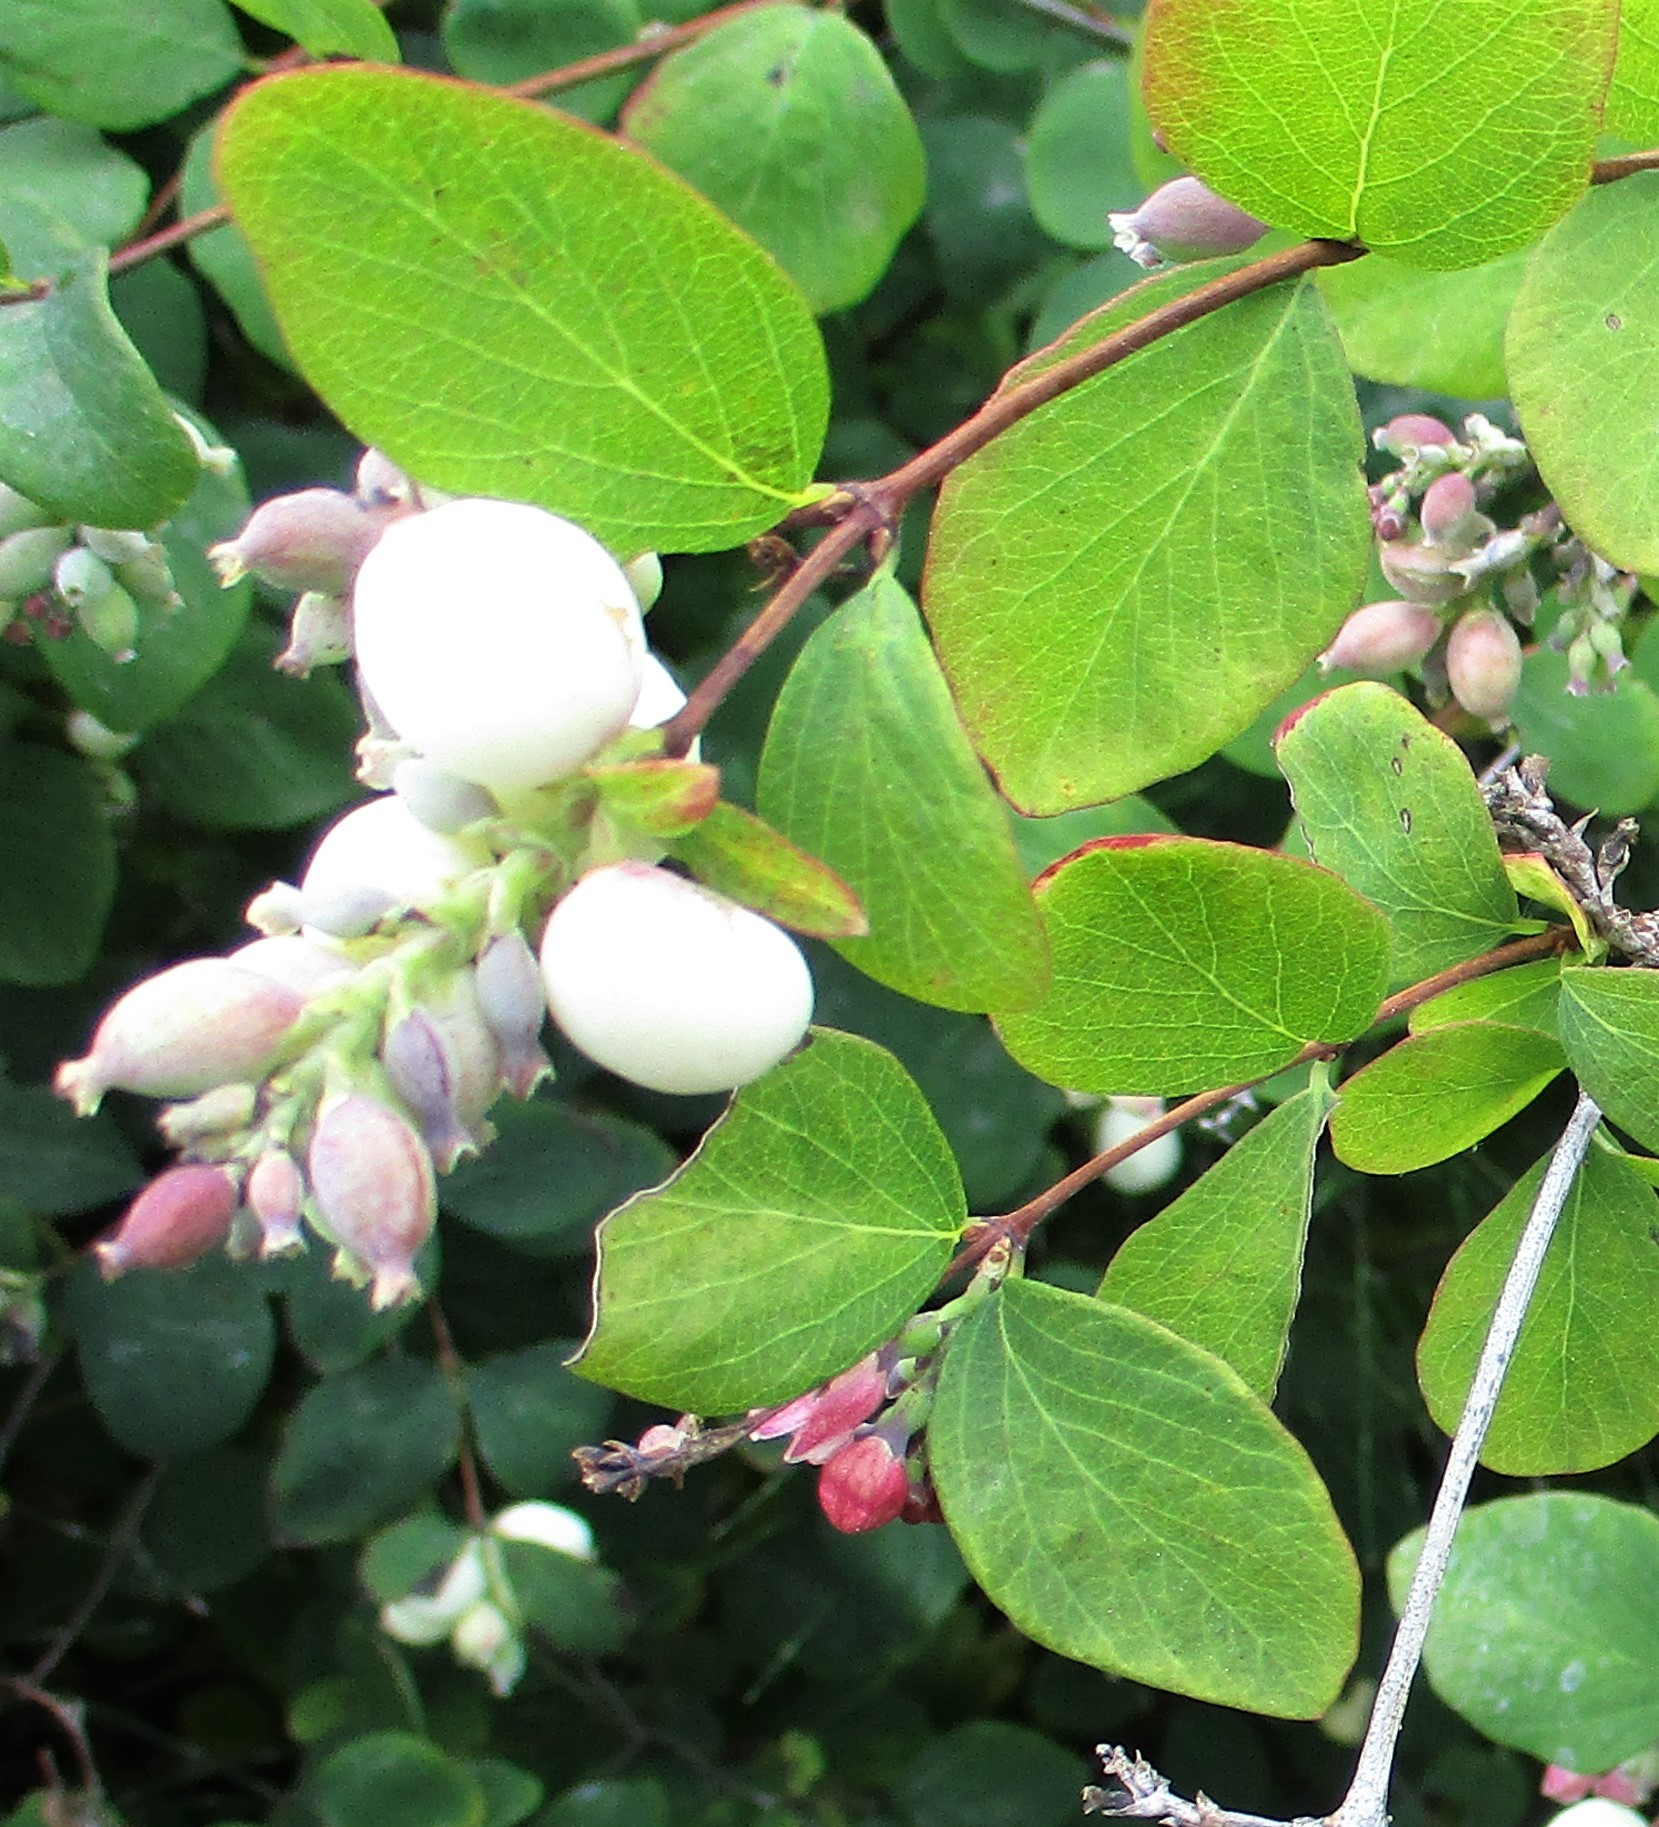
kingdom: Plantae
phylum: Tracheophyta
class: Magnoliopsida
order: Dipsacales
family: Caprifoliaceae
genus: Symphoricarpos
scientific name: Symphoricarpos albus
